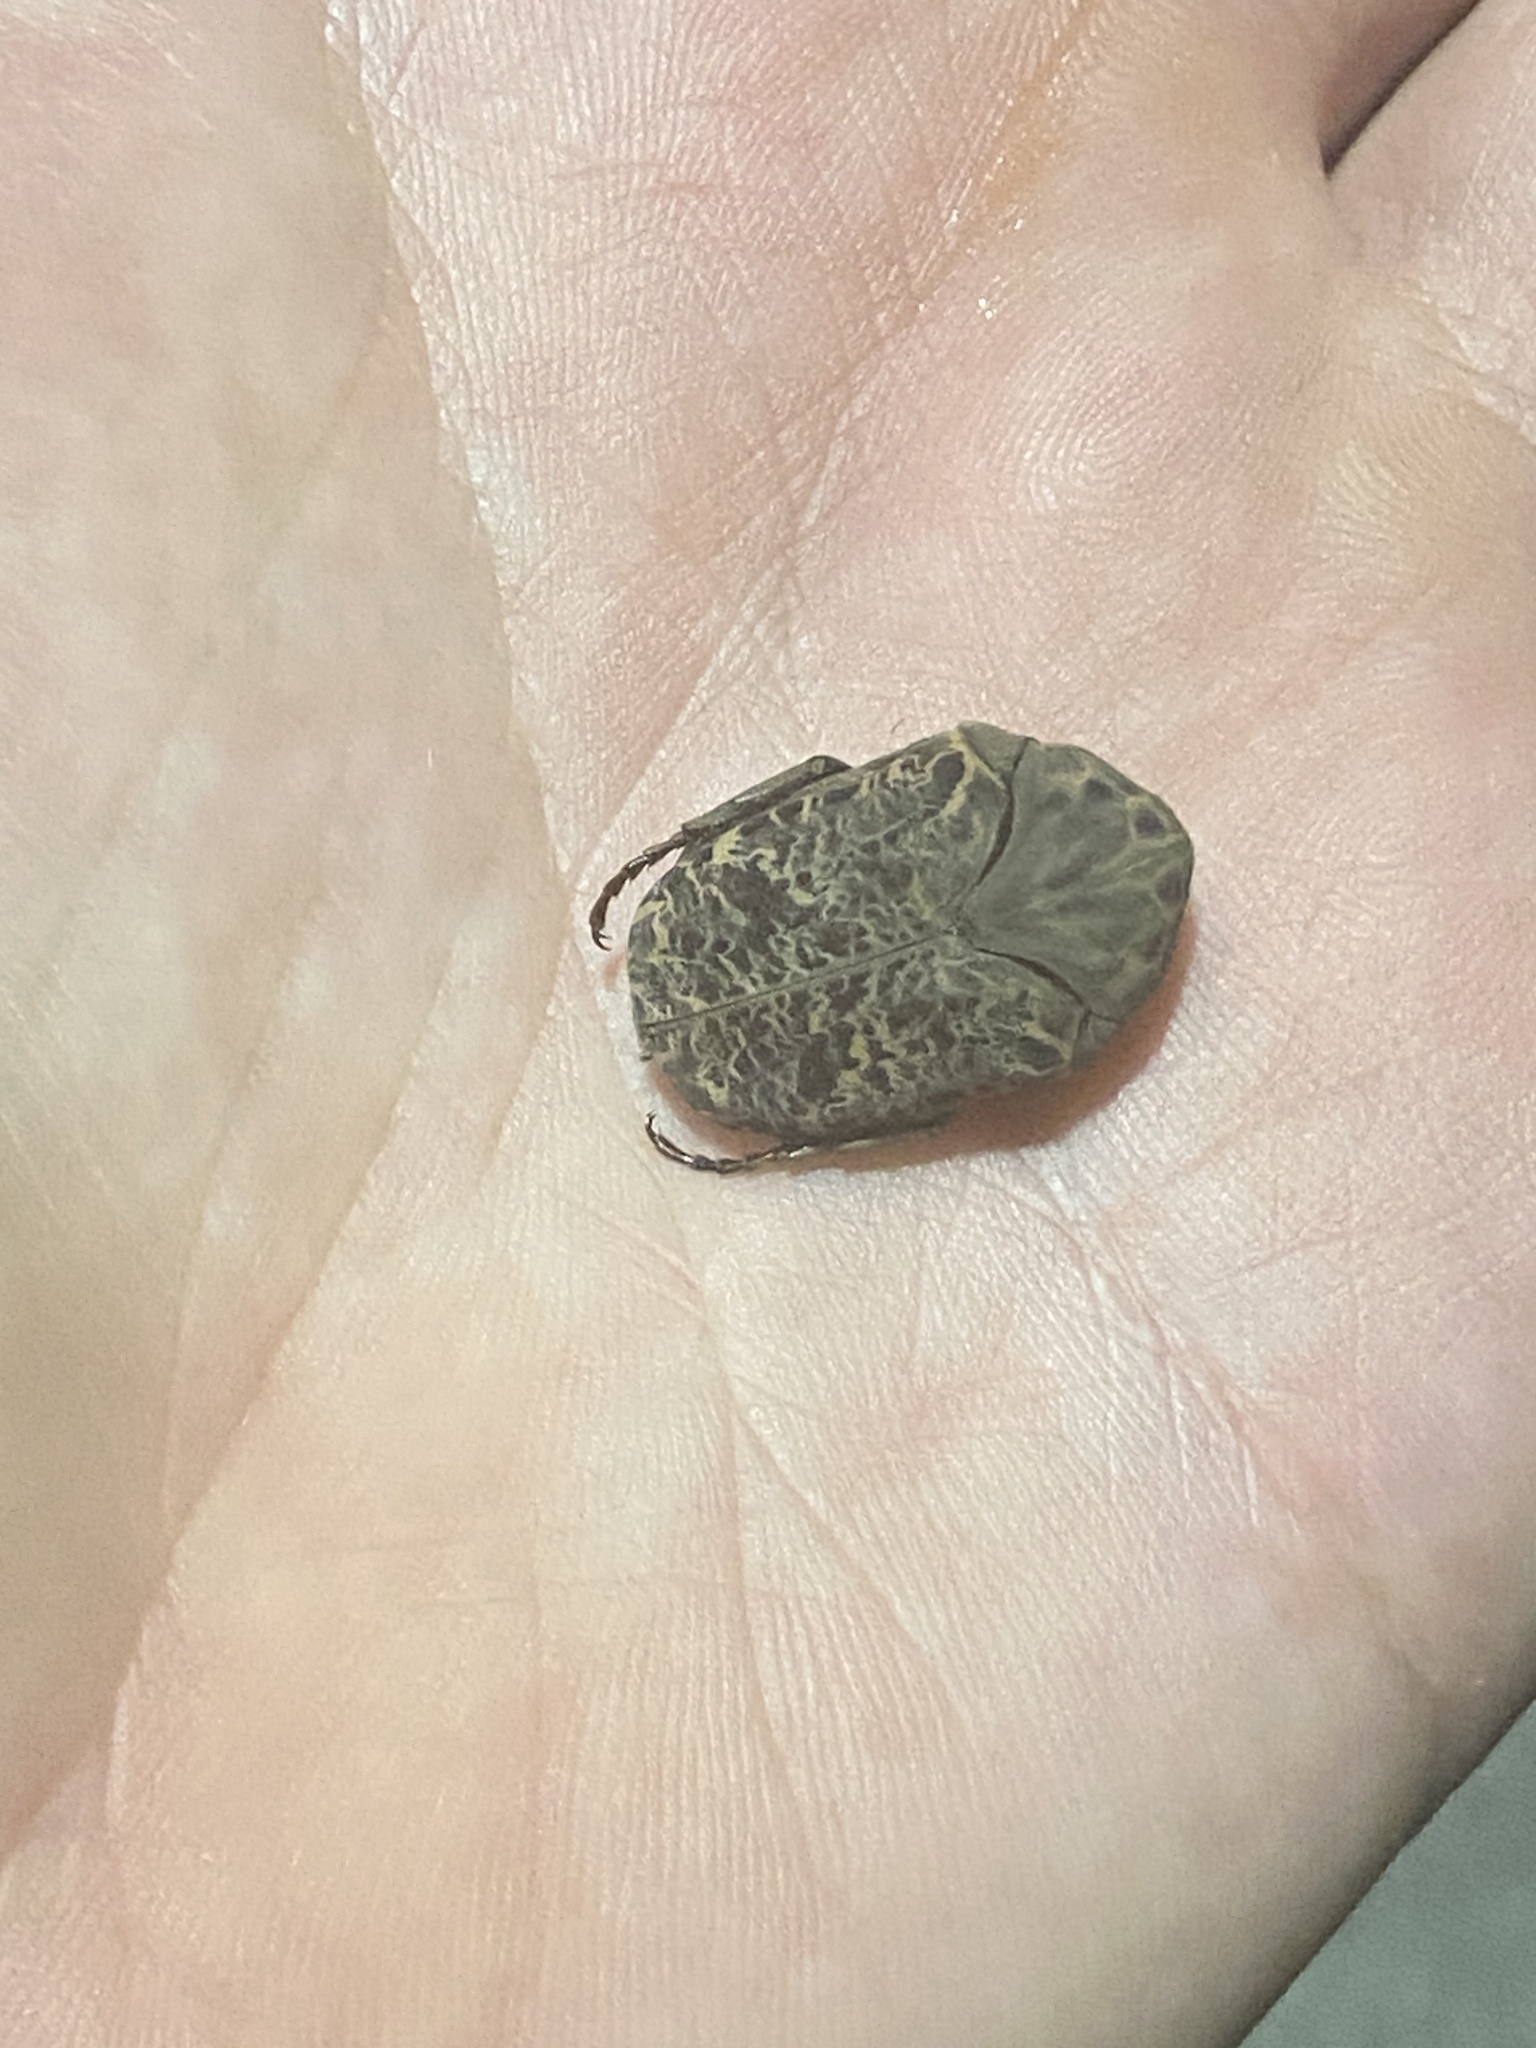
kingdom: Animalia
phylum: Arthropoda
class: Insecta
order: Coleoptera
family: Scarabaeidae
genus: Gymnetis
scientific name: Gymnetis chalcipes
